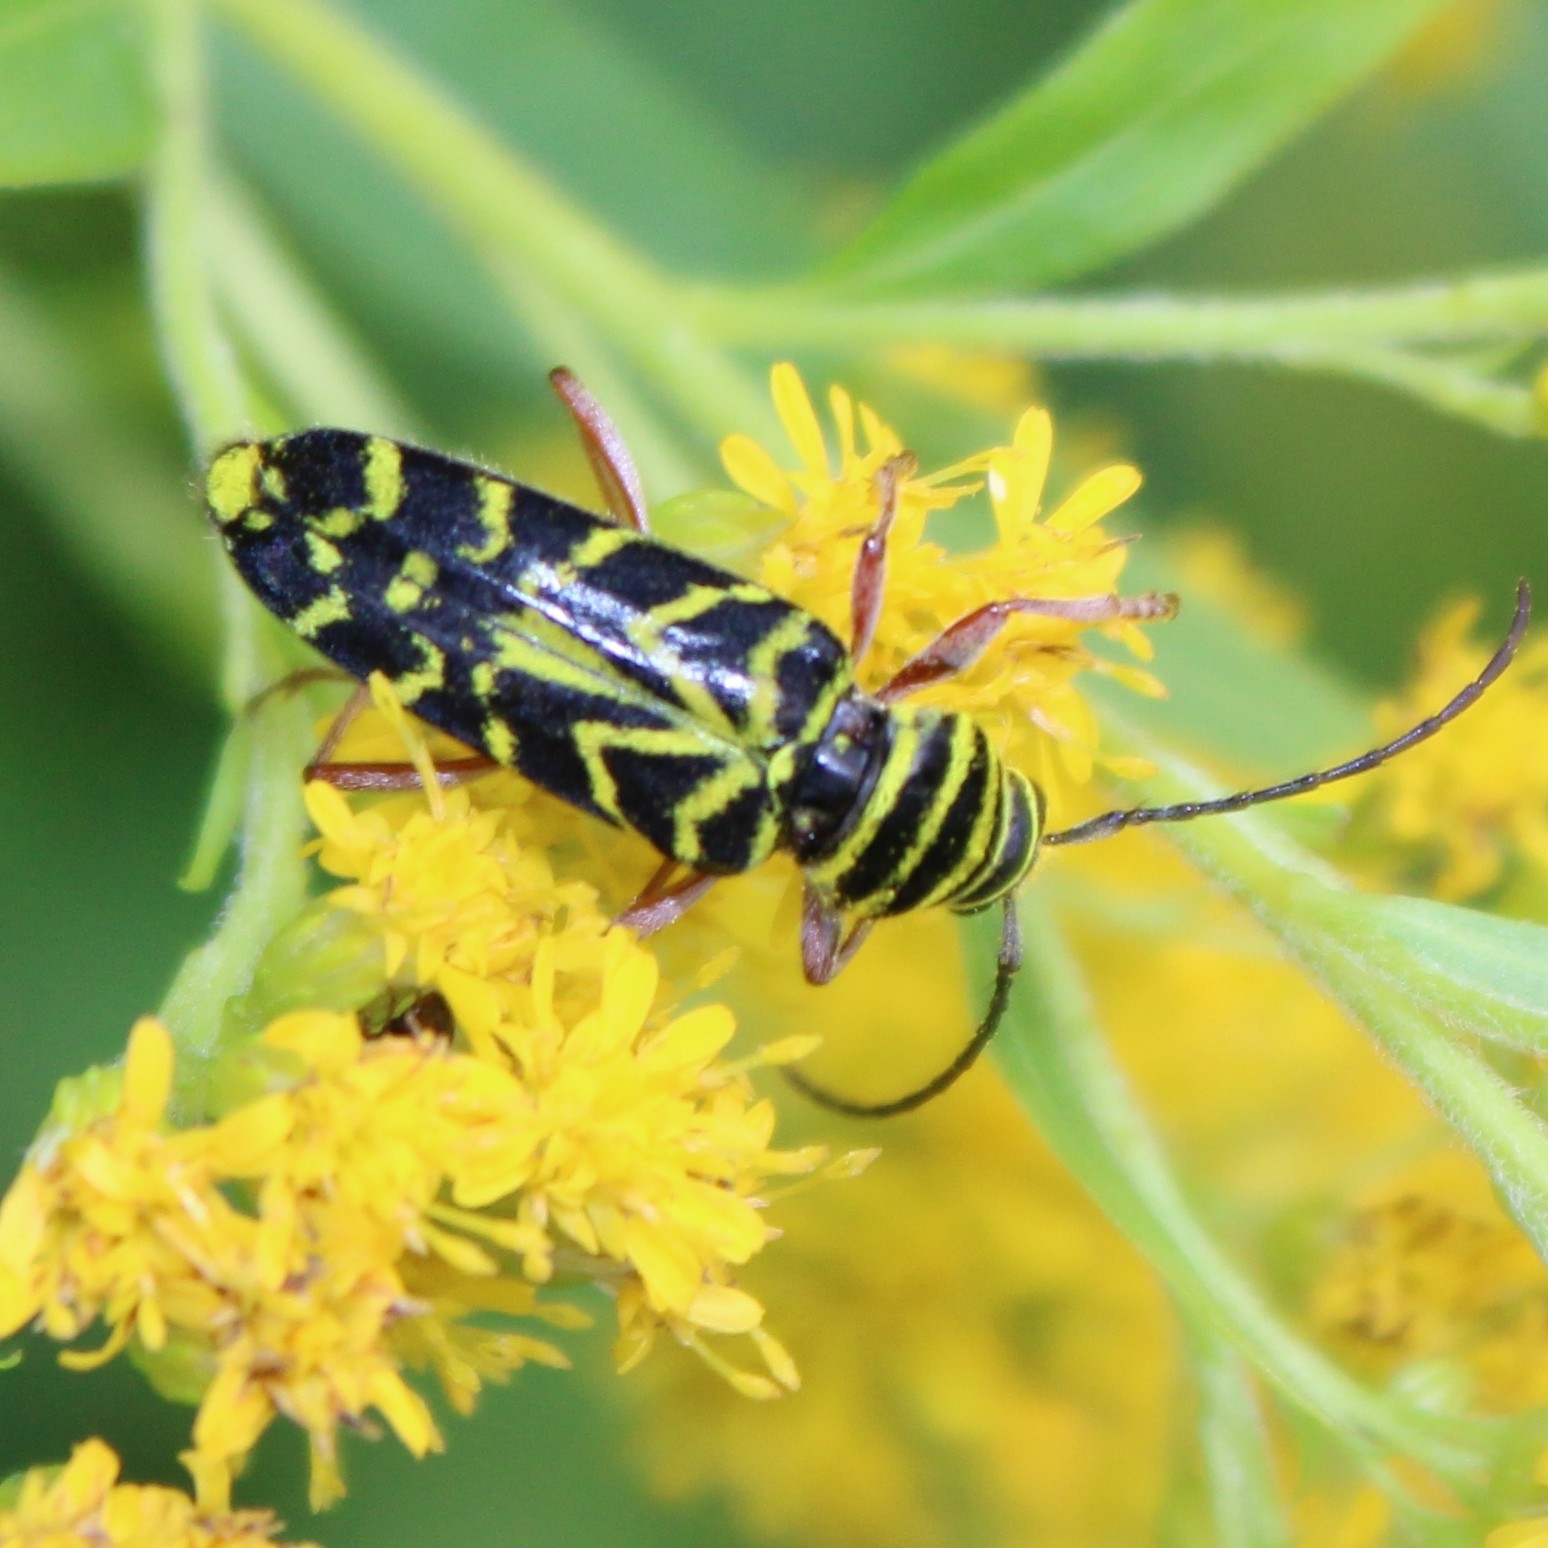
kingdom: Animalia
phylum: Arthropoda
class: Insecta
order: Coleoptera
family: Cerambycidae
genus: Megacyllene
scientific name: Megacyllene robiniae
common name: Locust borer
